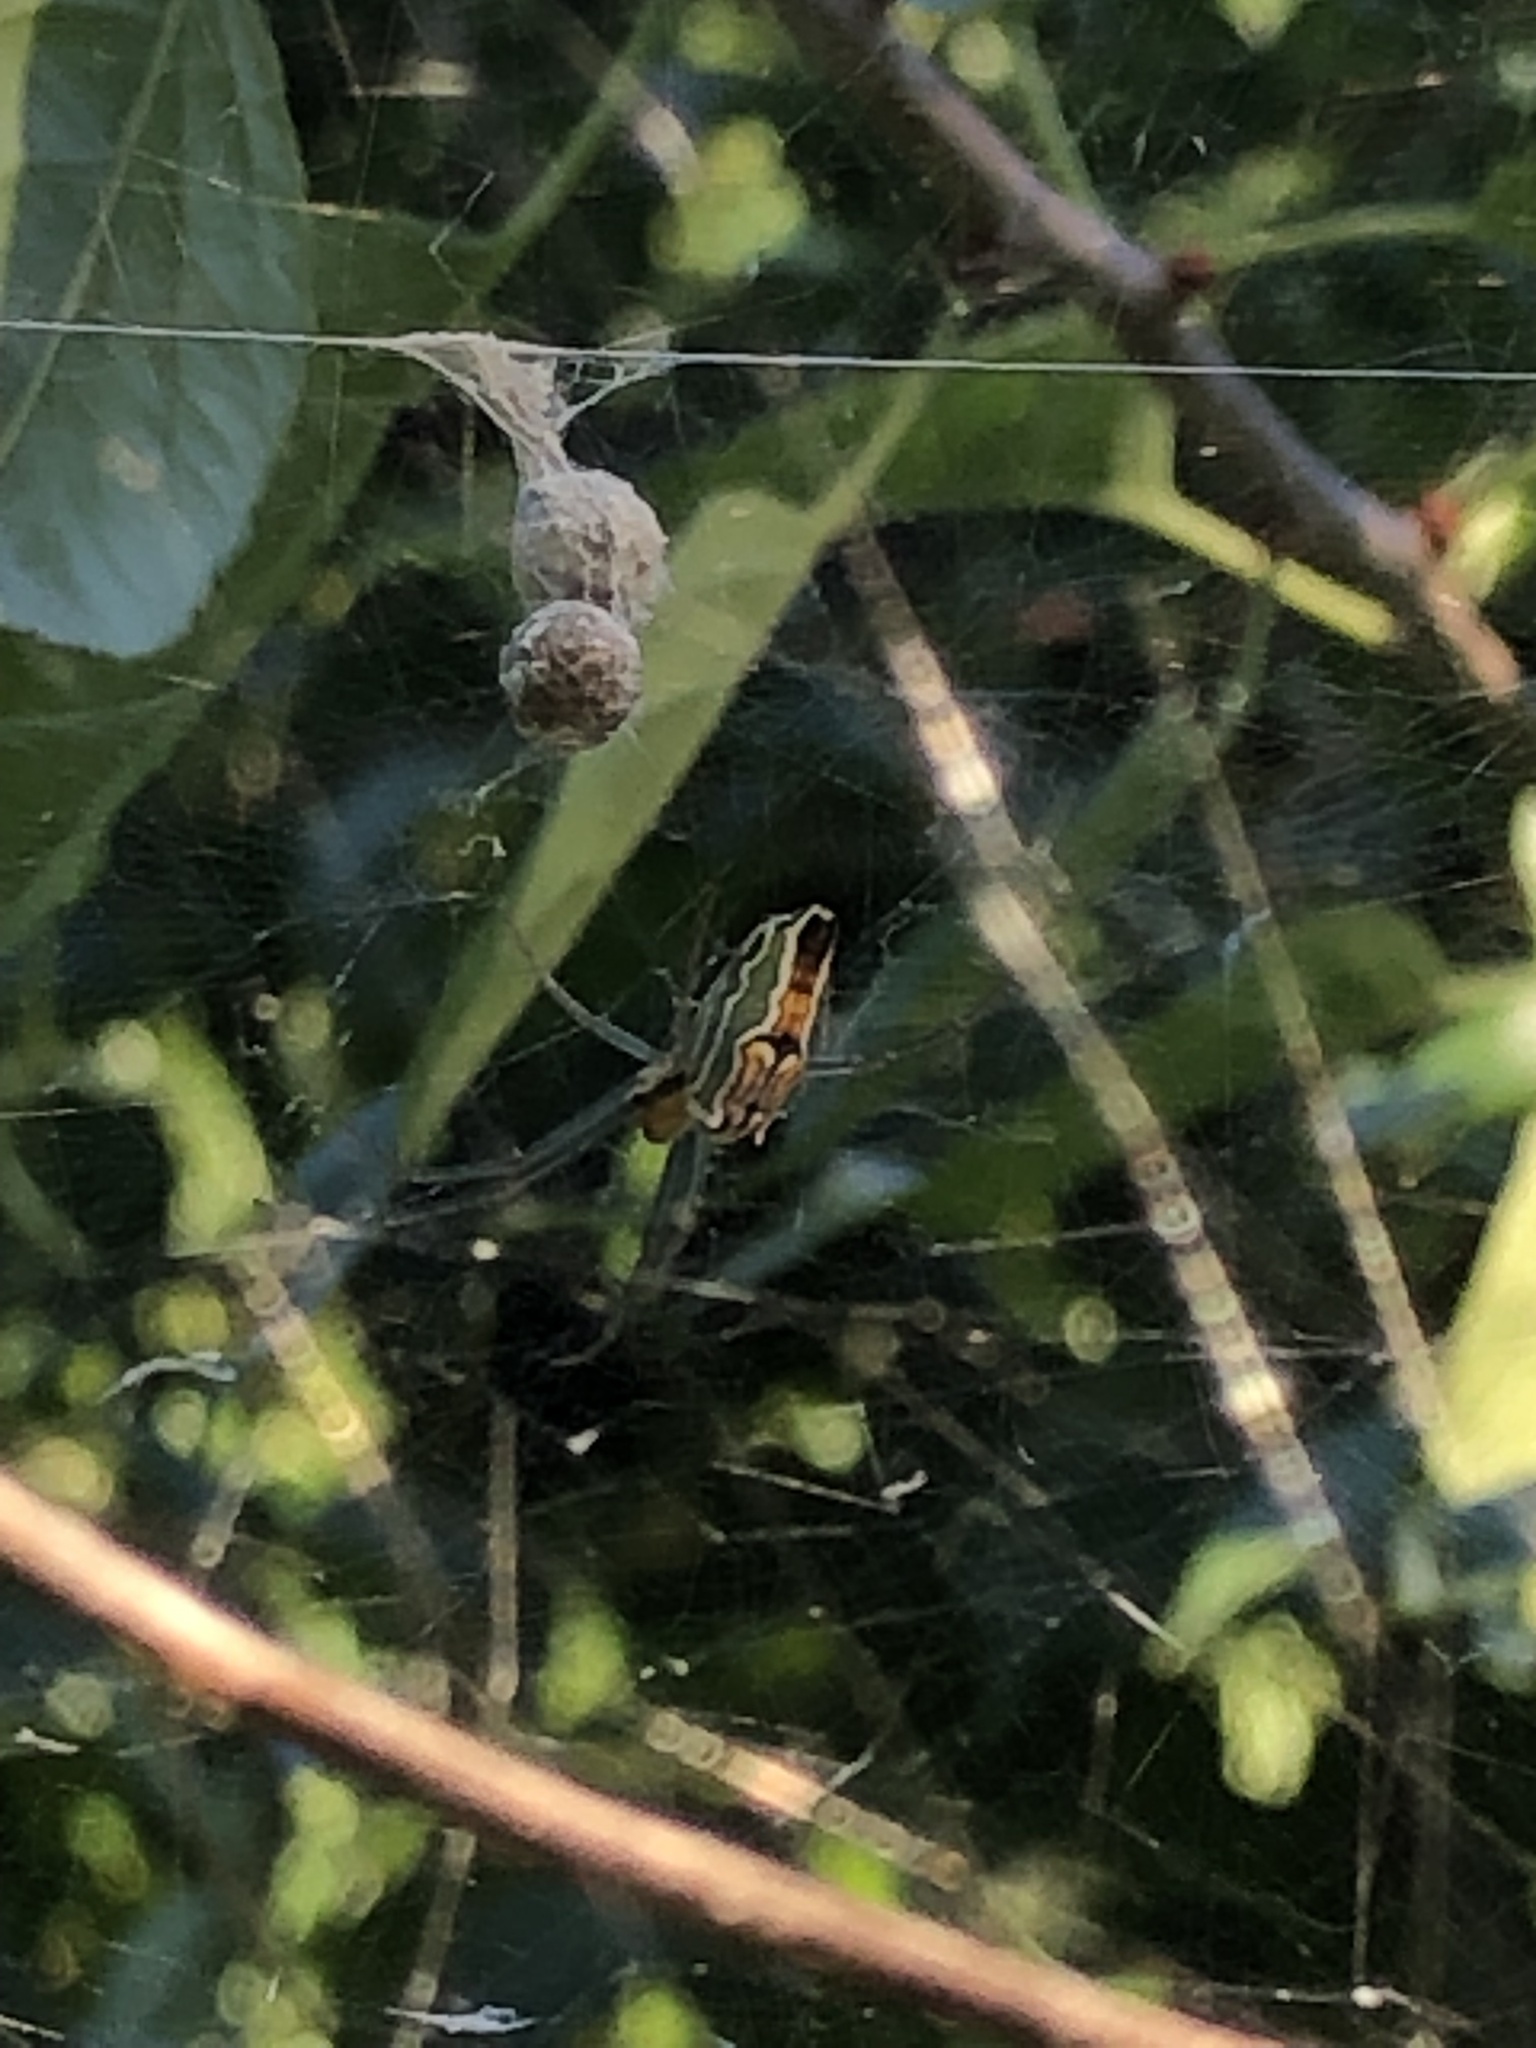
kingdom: Animalia
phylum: Arthropoda
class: Arachnida
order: Araneae
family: Araneidae
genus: Mecynogea
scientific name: Mecynogea lemniscata
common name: Orb weavers
